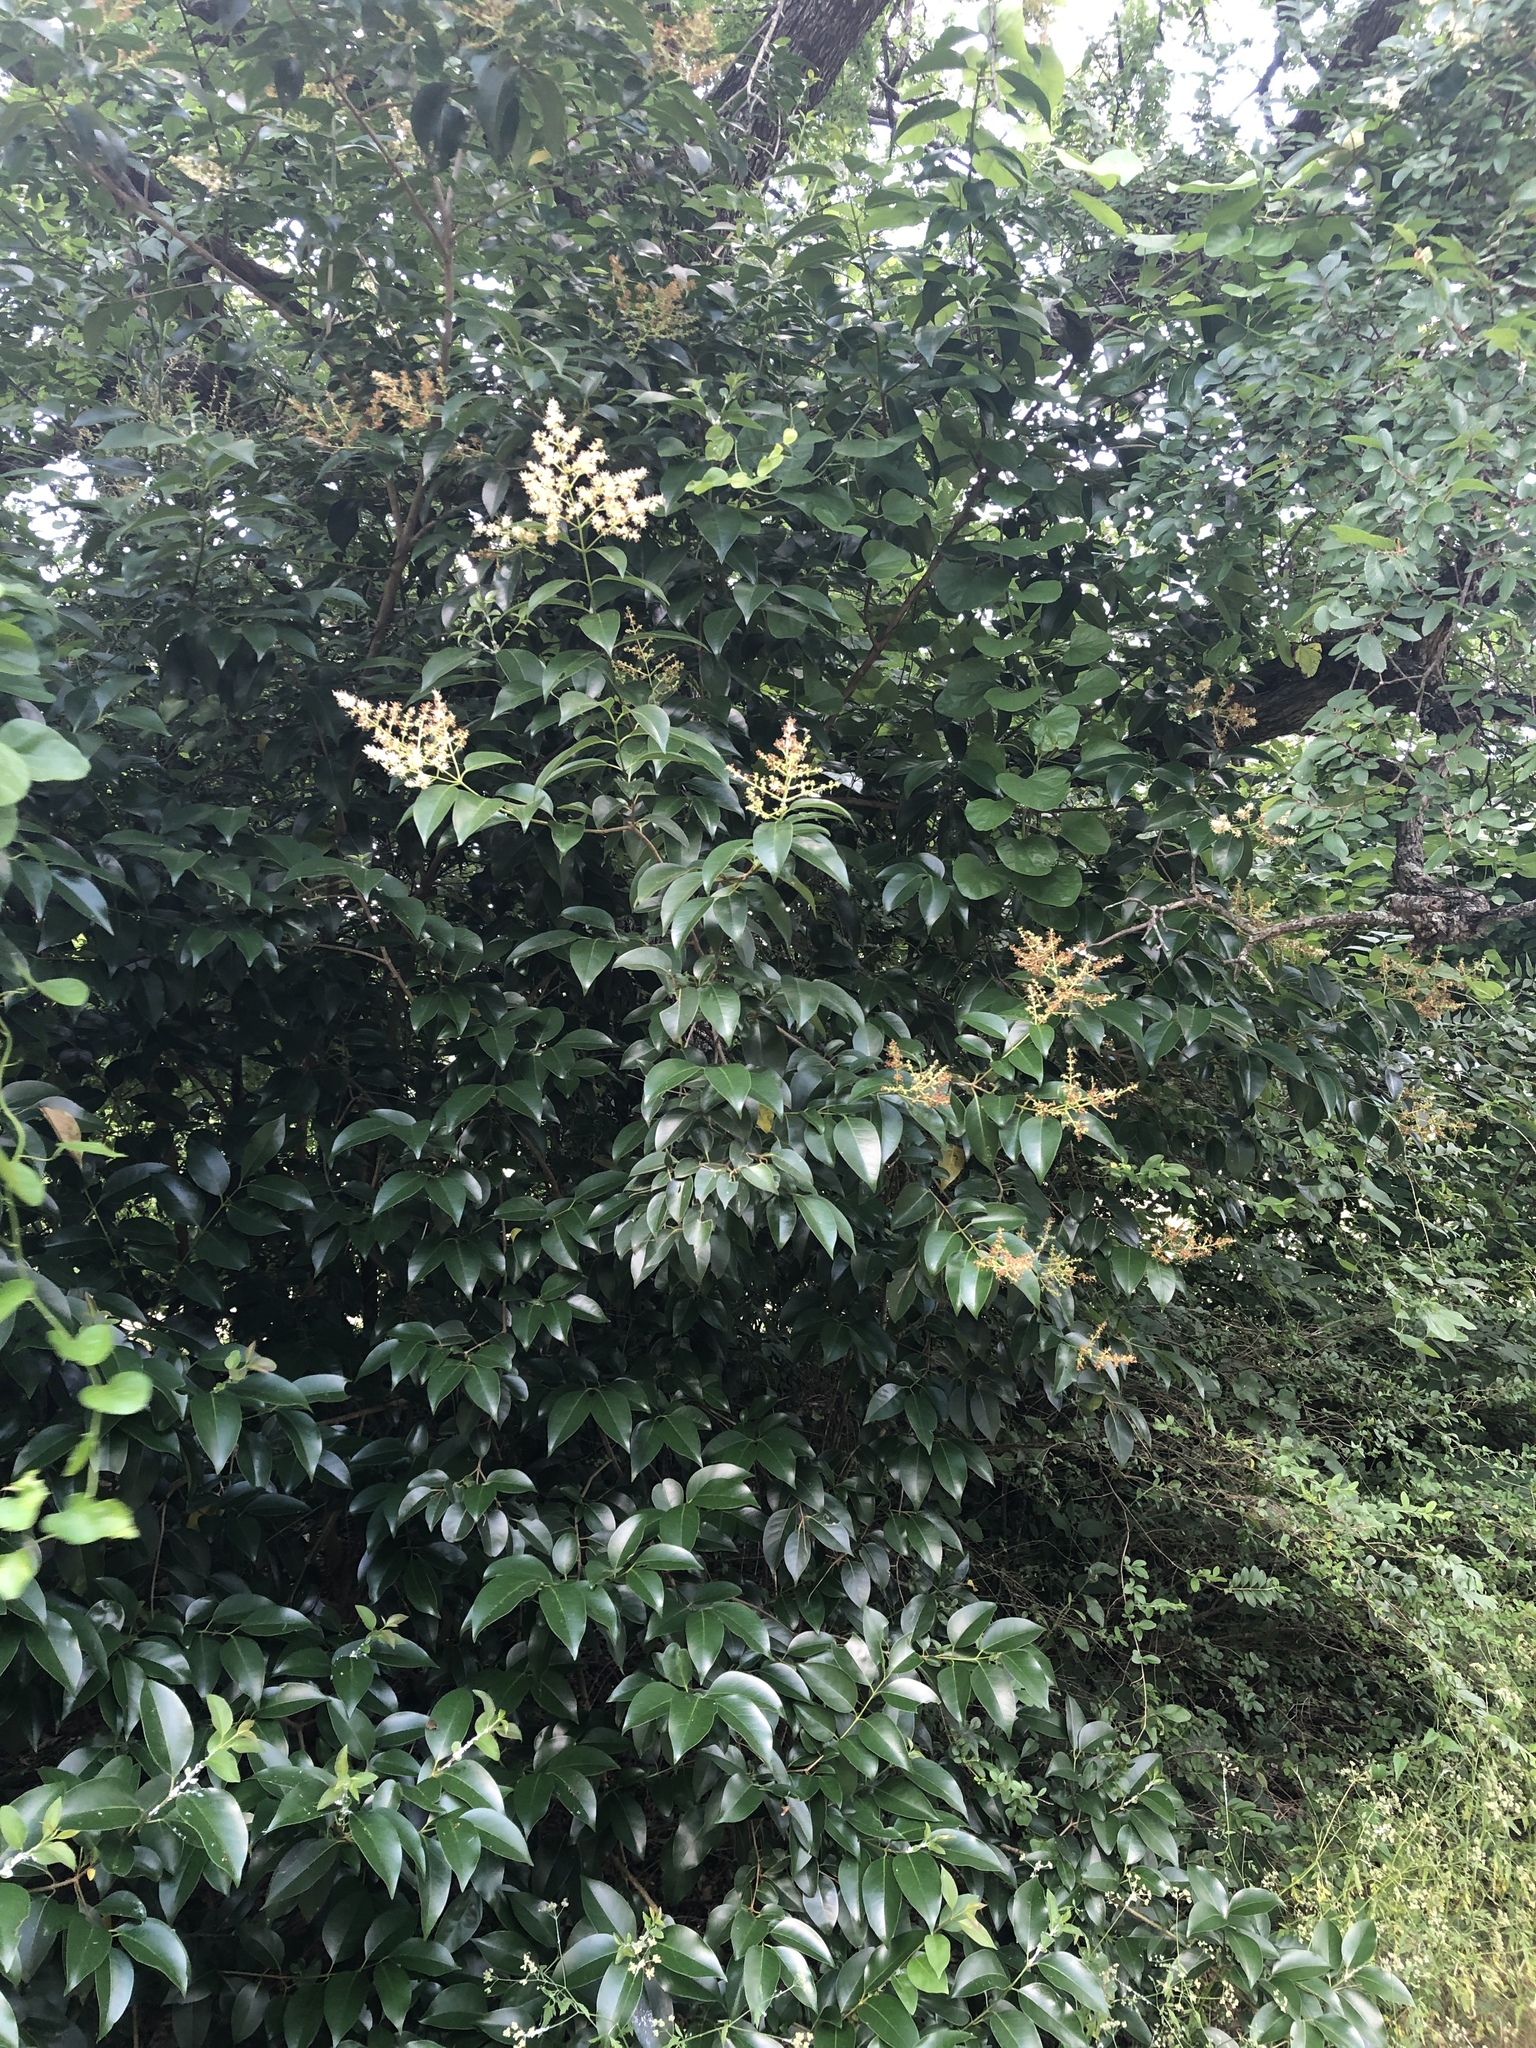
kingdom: Plantae
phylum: Tracheophyta
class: Magnoliopsida
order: Lamiales
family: Oleaceae
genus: Ligustrum
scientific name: Ligustrum lucidum
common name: Glossy privet
